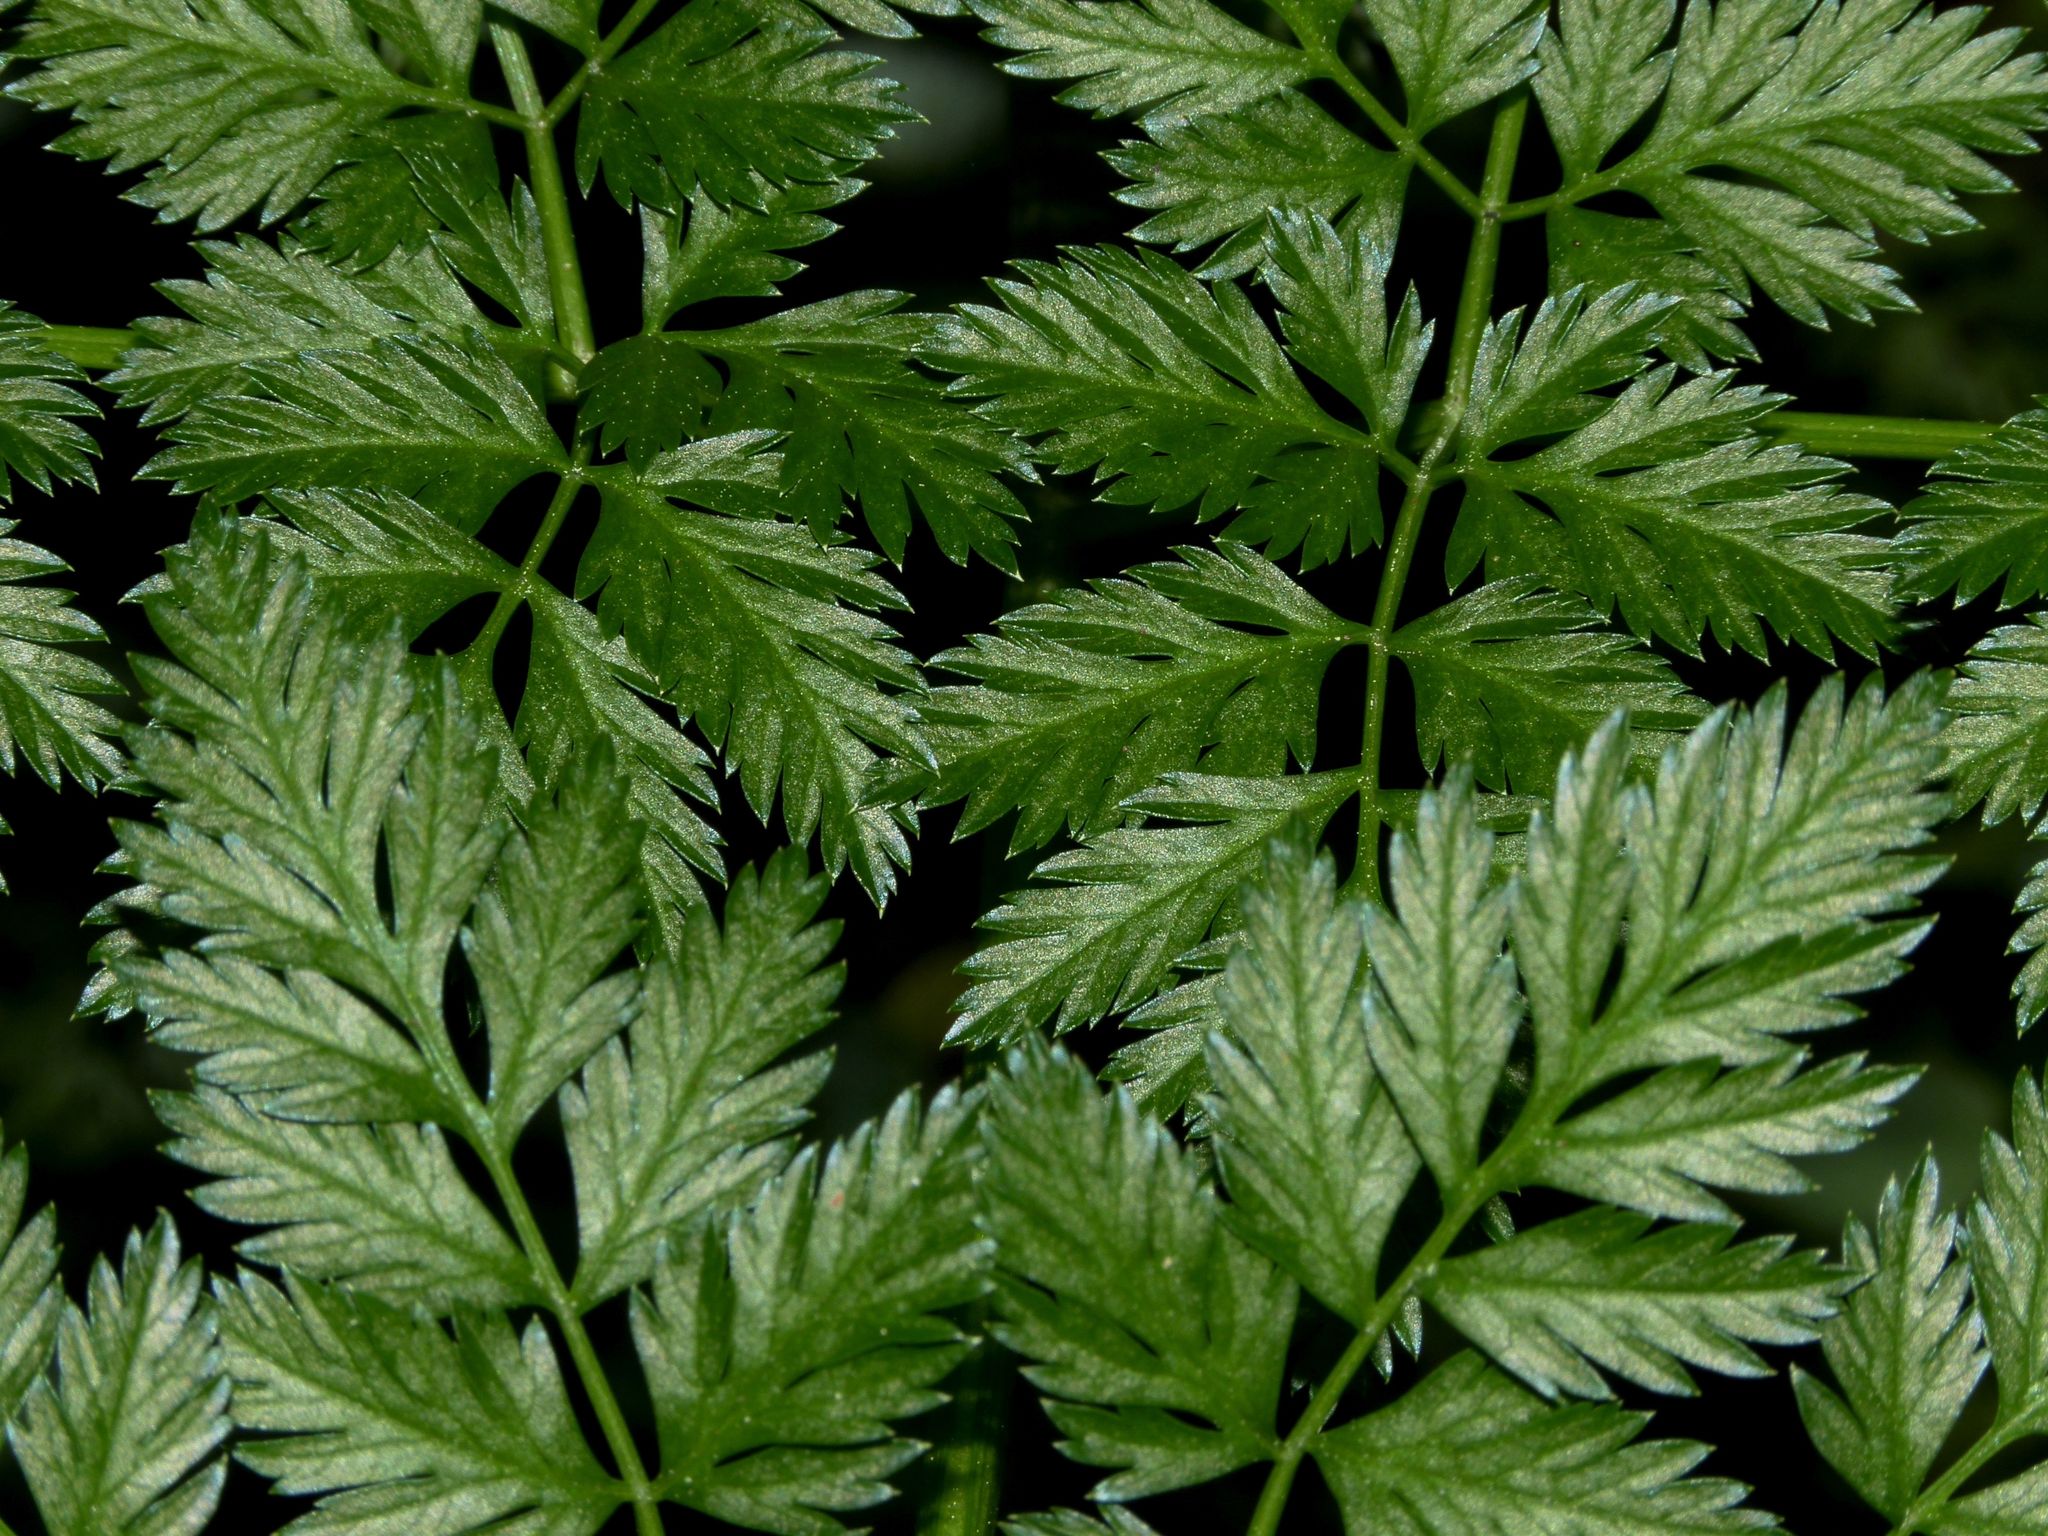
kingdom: Plantae
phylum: Tracheophyta
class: Magnoliopsida
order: Apiales
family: Apiaceae
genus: Conium
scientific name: Conium maculatum
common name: Hemlock
